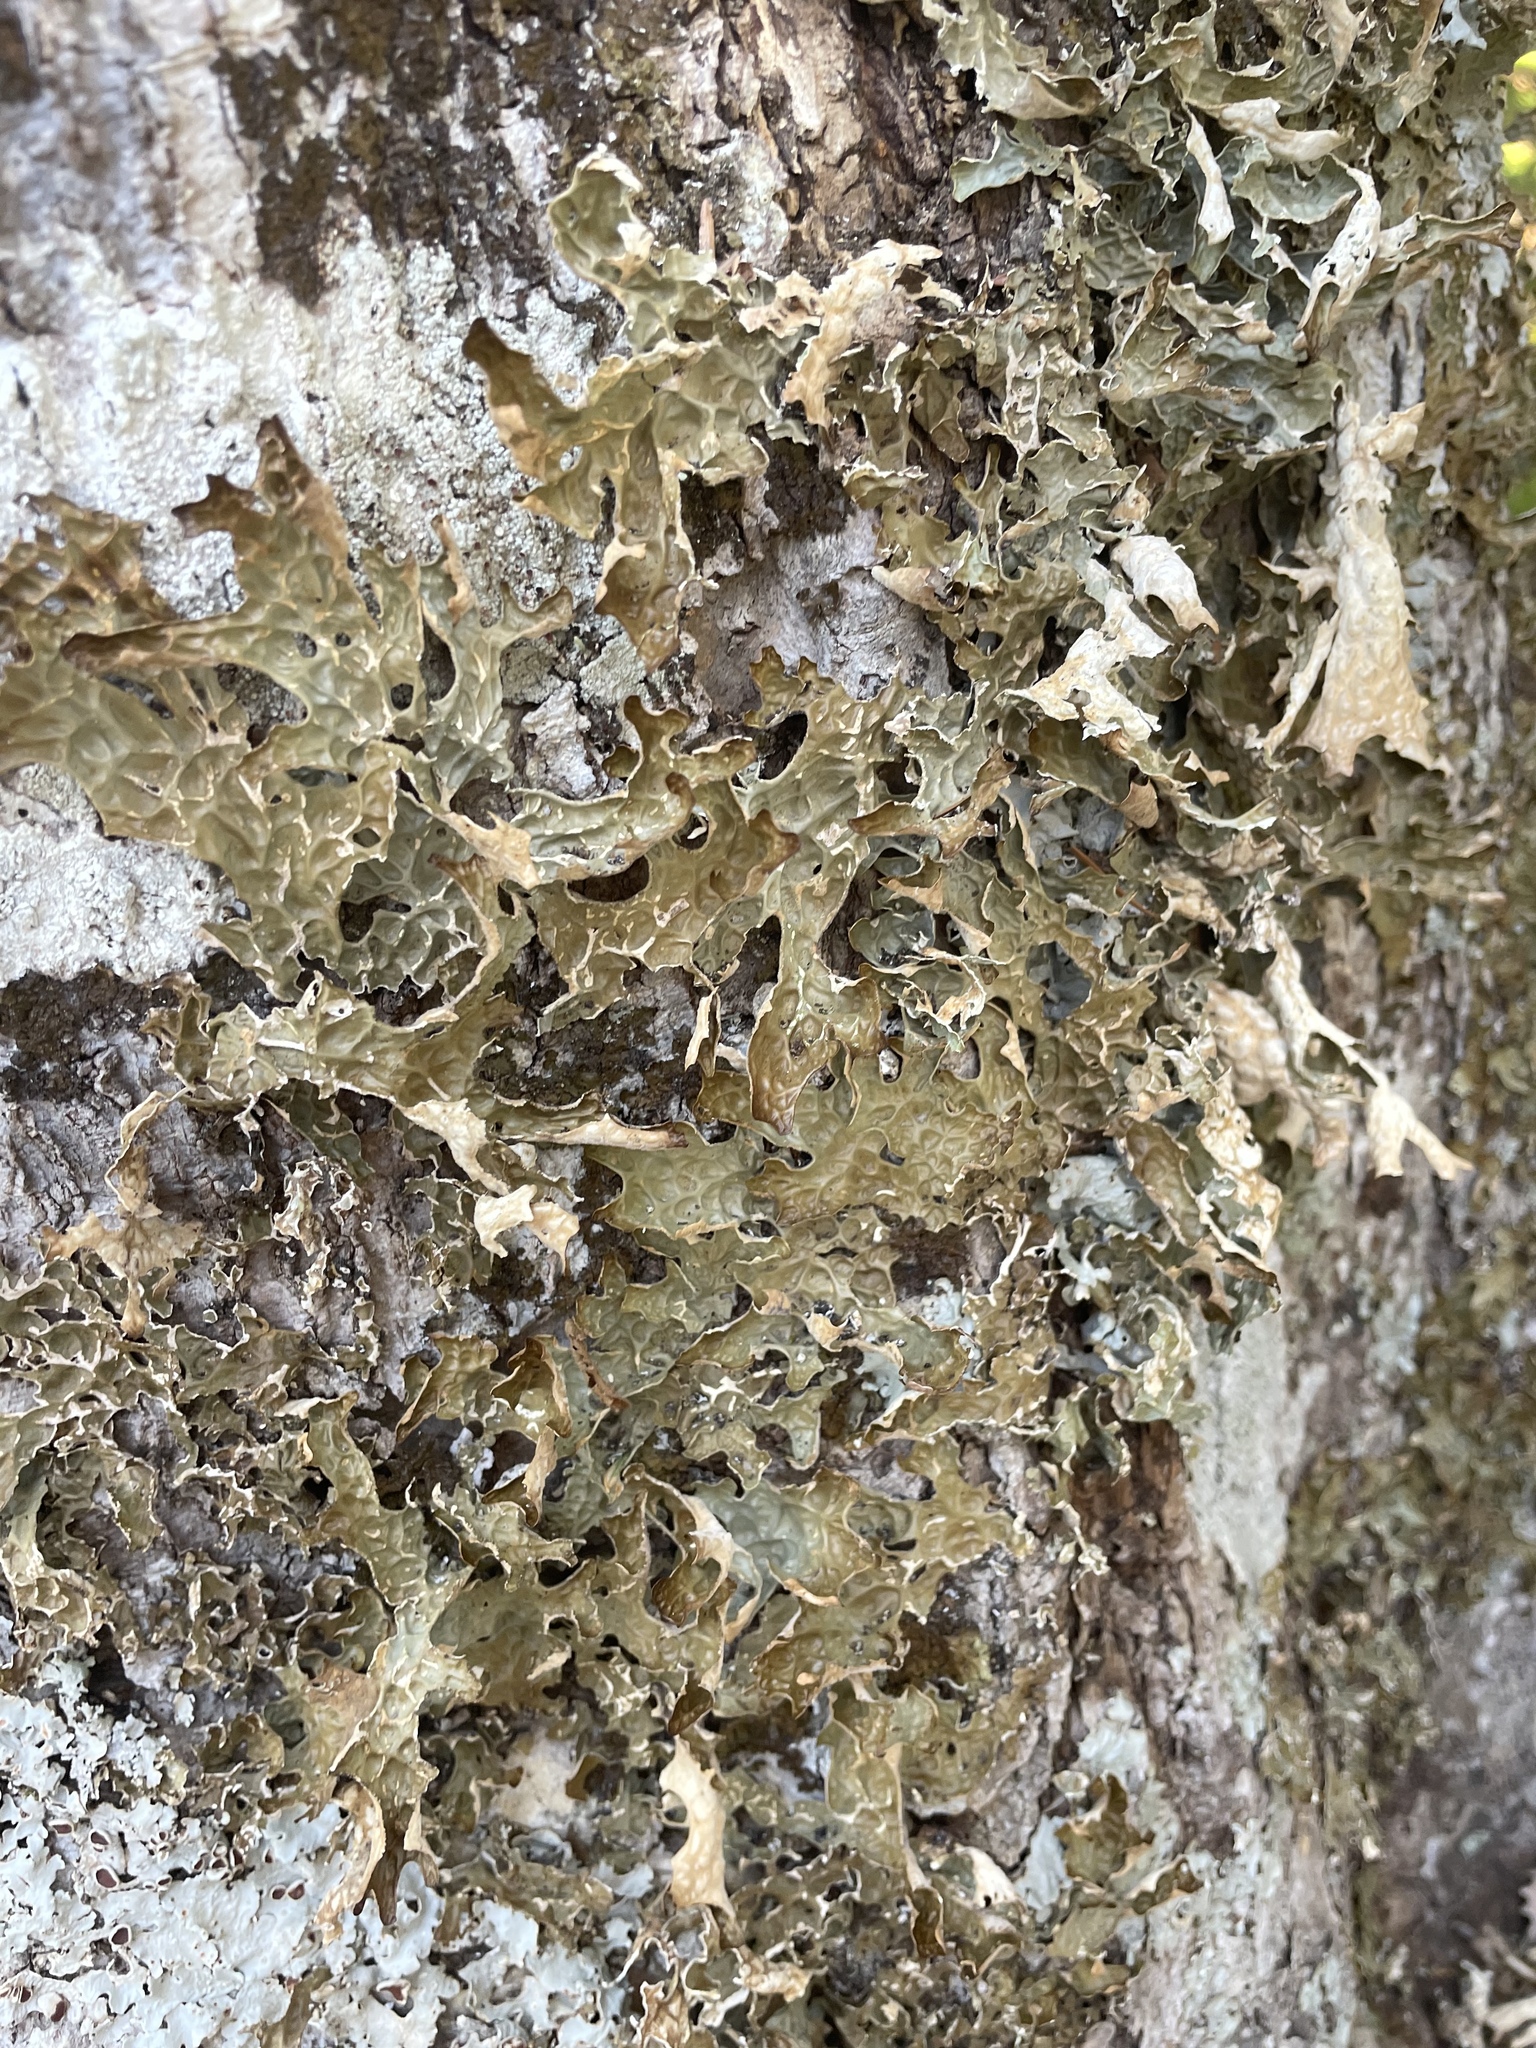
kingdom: Fungi
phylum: Ascomycota
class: Lecanoromycetes
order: Peltigerales
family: Lobariaceae
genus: Lobaria
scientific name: Lobaria pulmonaria
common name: Lungwort
